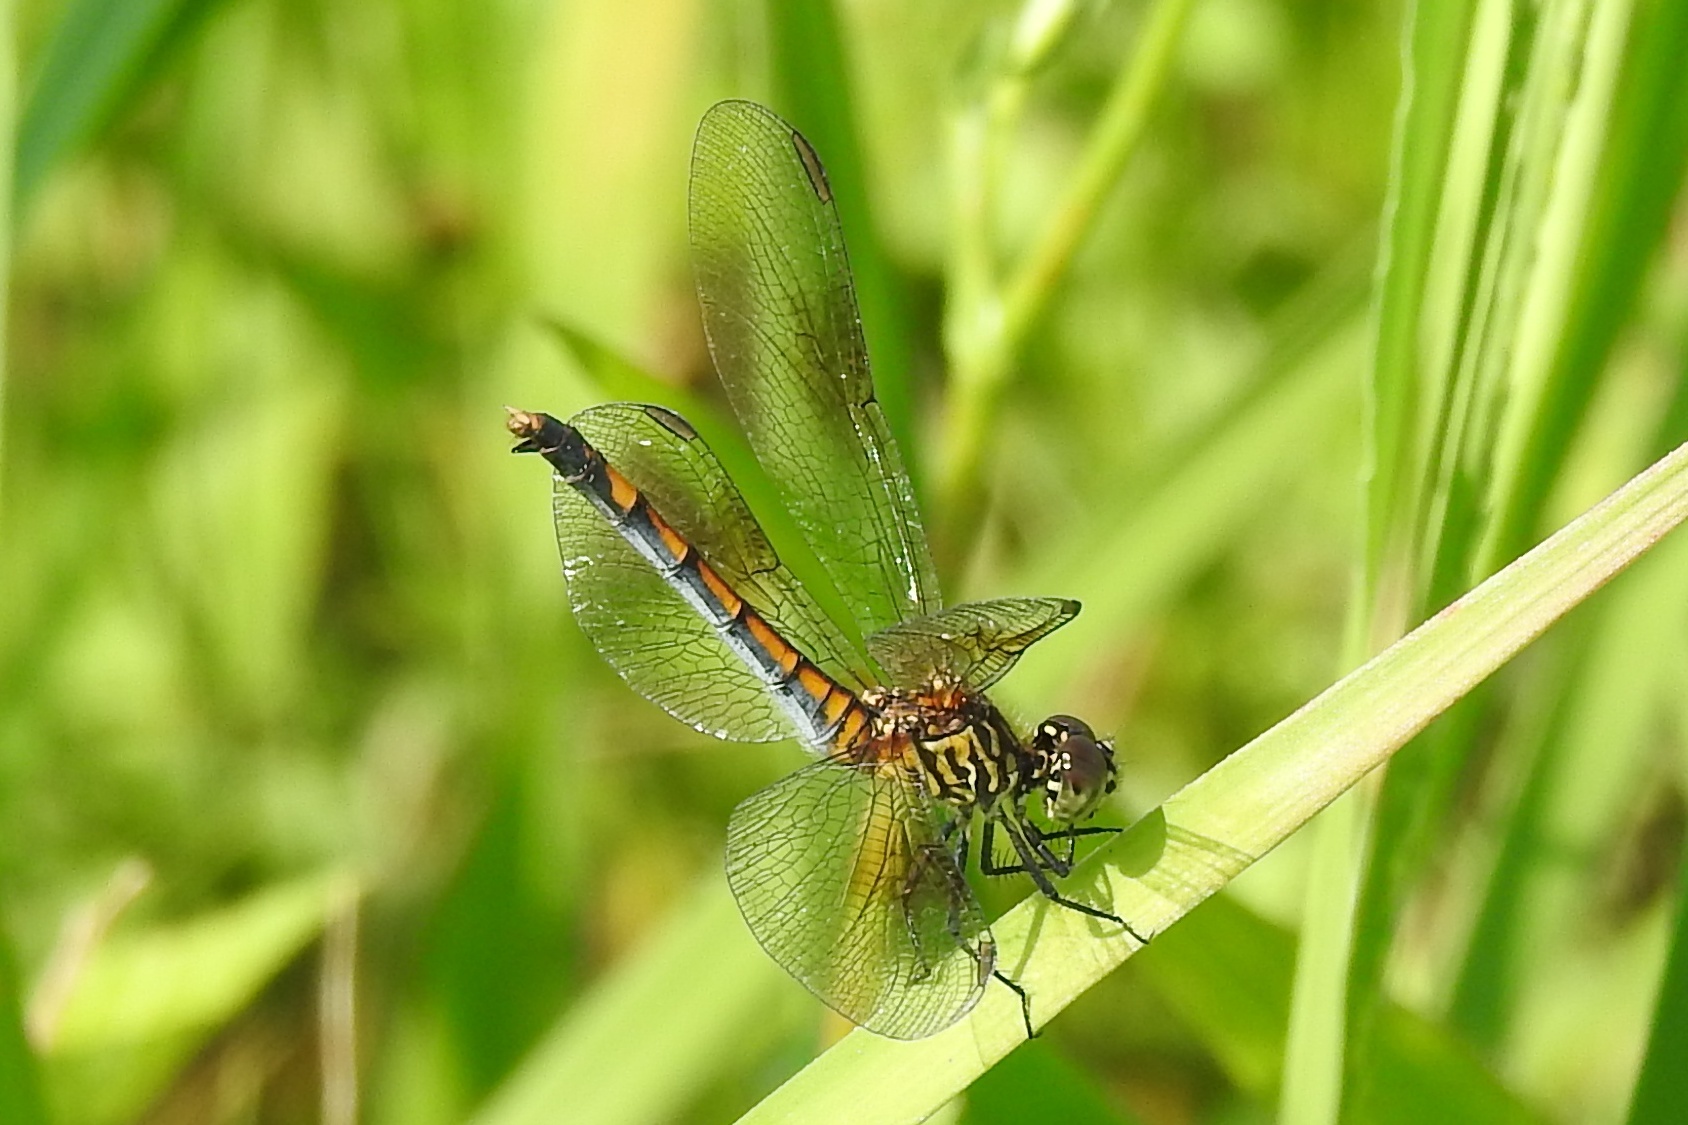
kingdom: Animalia
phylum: Arthropoda
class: Insecta
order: Odonata
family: Libellulidae
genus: Erythrodiplax
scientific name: Erythrodiplax berenice
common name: Seaside dragonlet
